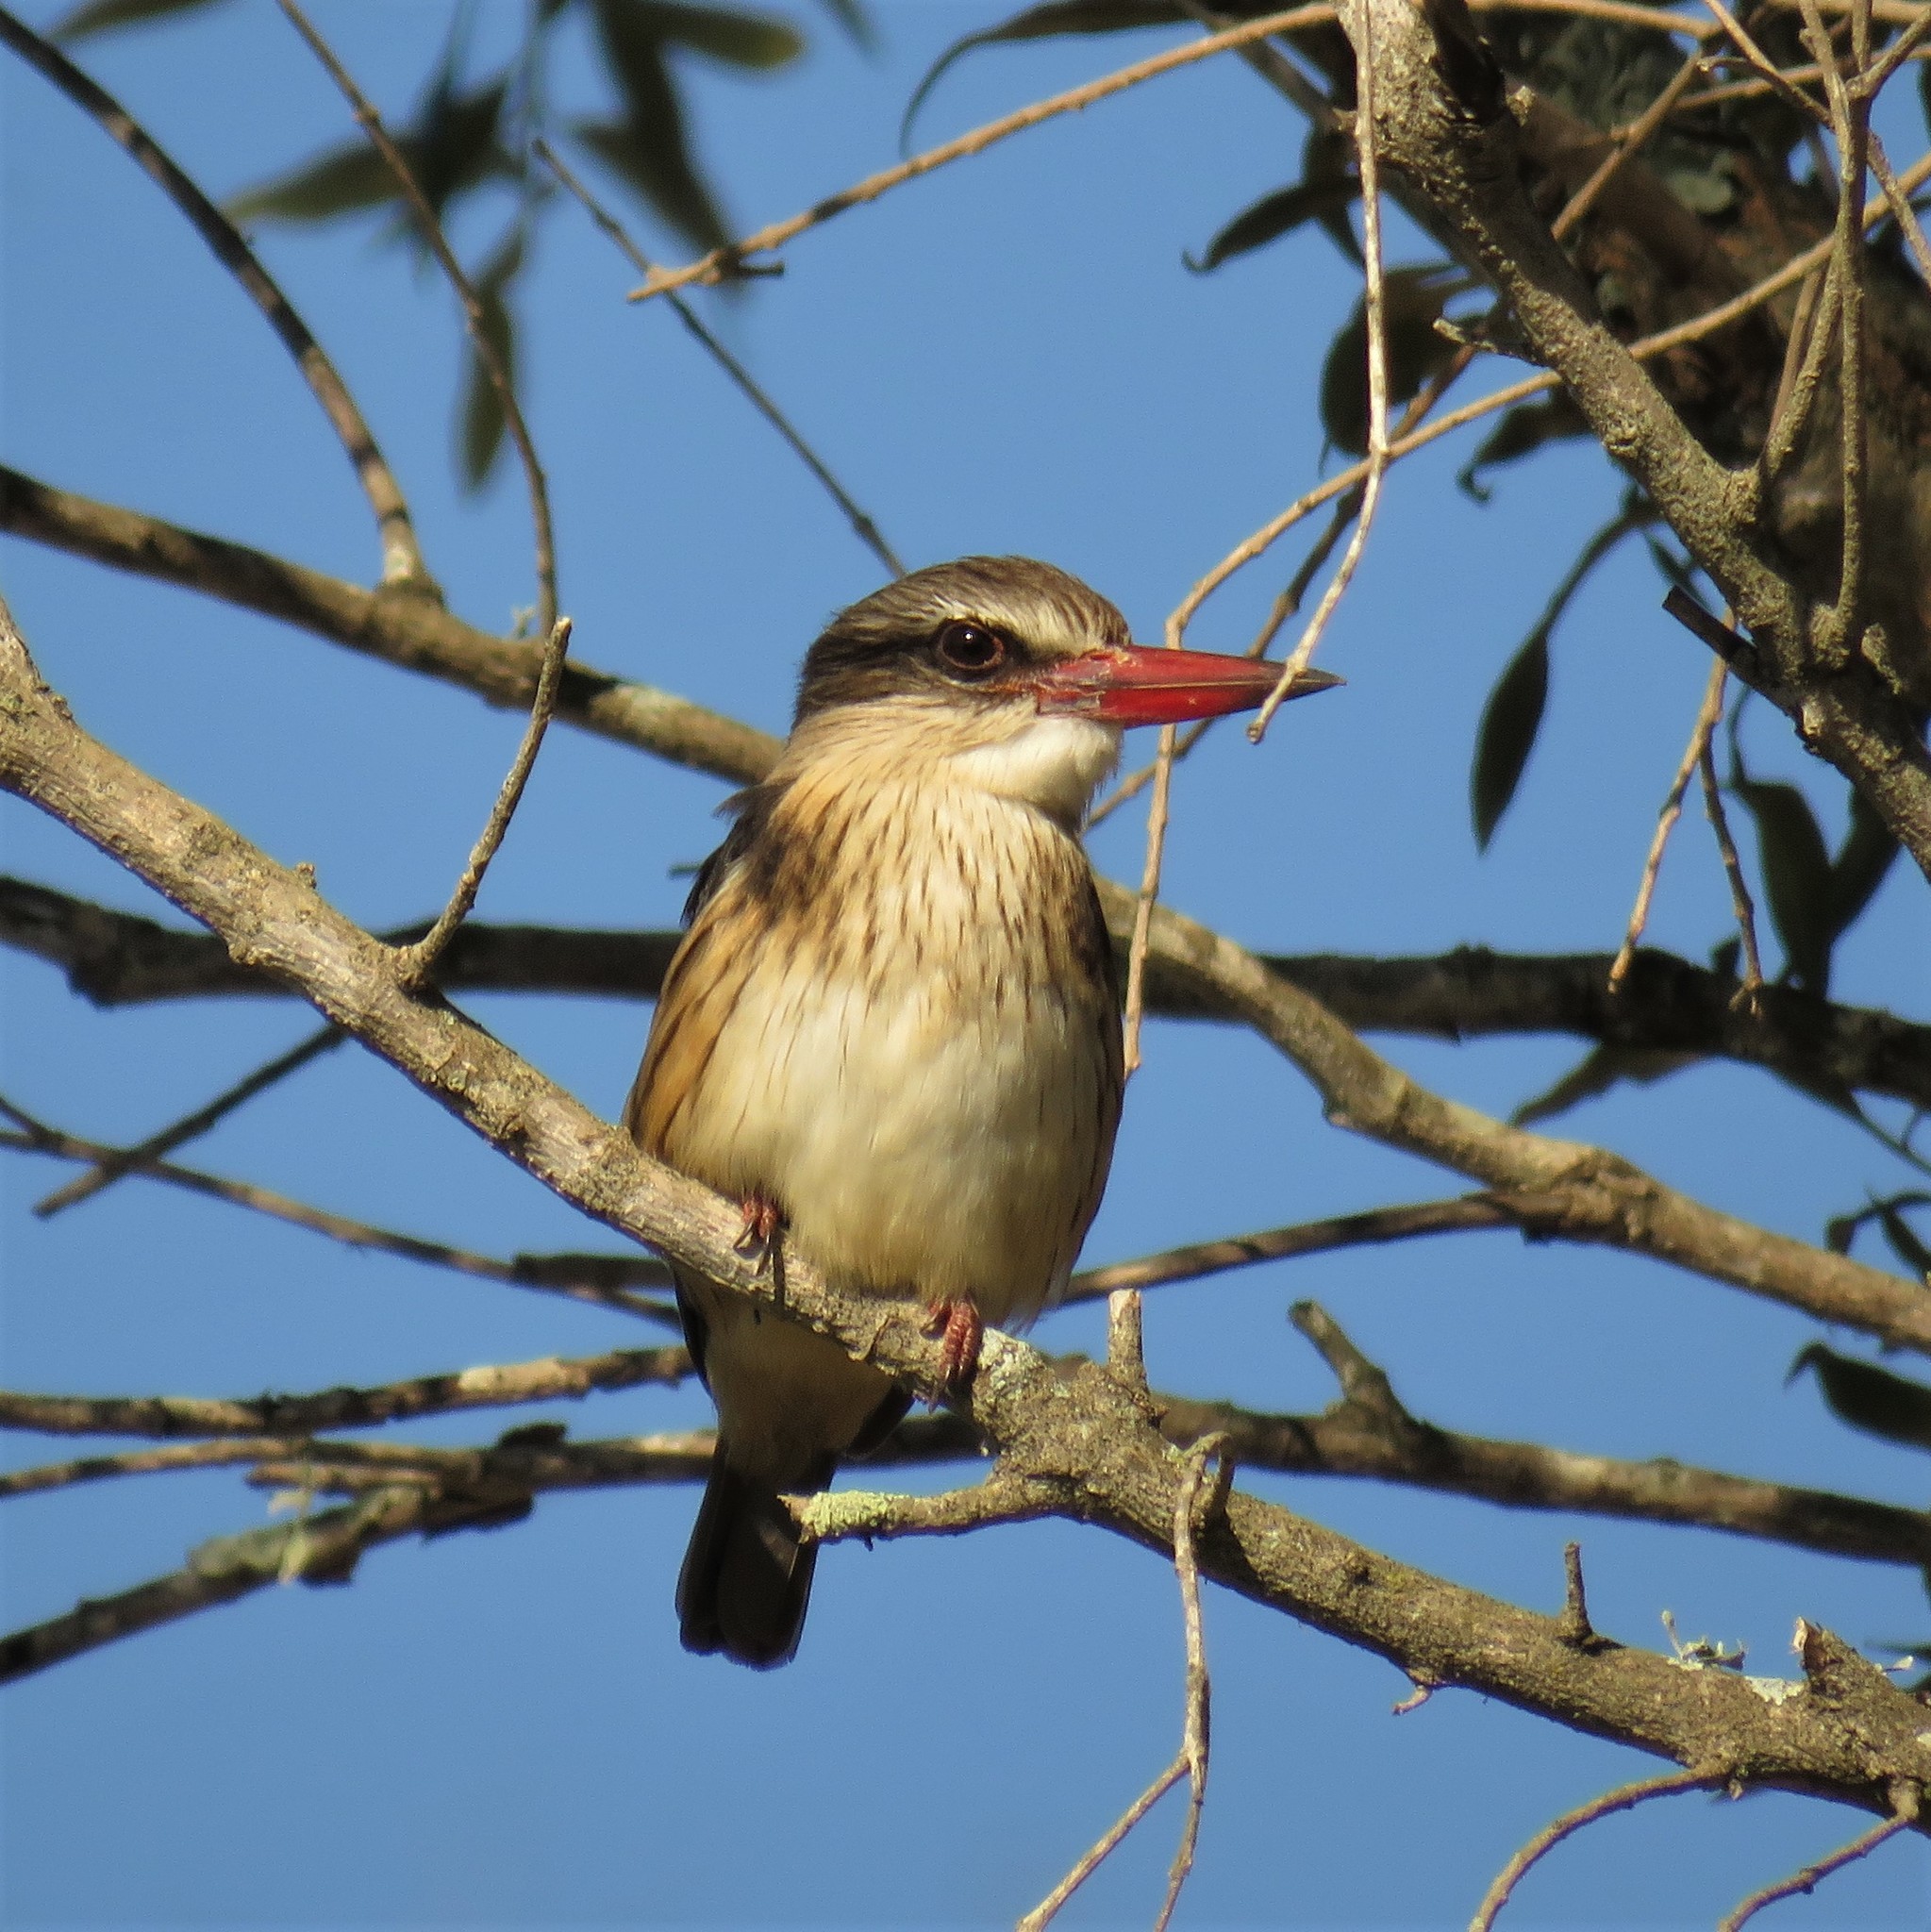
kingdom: Animalia
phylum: Chordata
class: Aves
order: Coraciiformes
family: Alcedinidae
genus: Halcyon
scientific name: Halcyon albiventris
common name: Brown-hooded kingfisher
